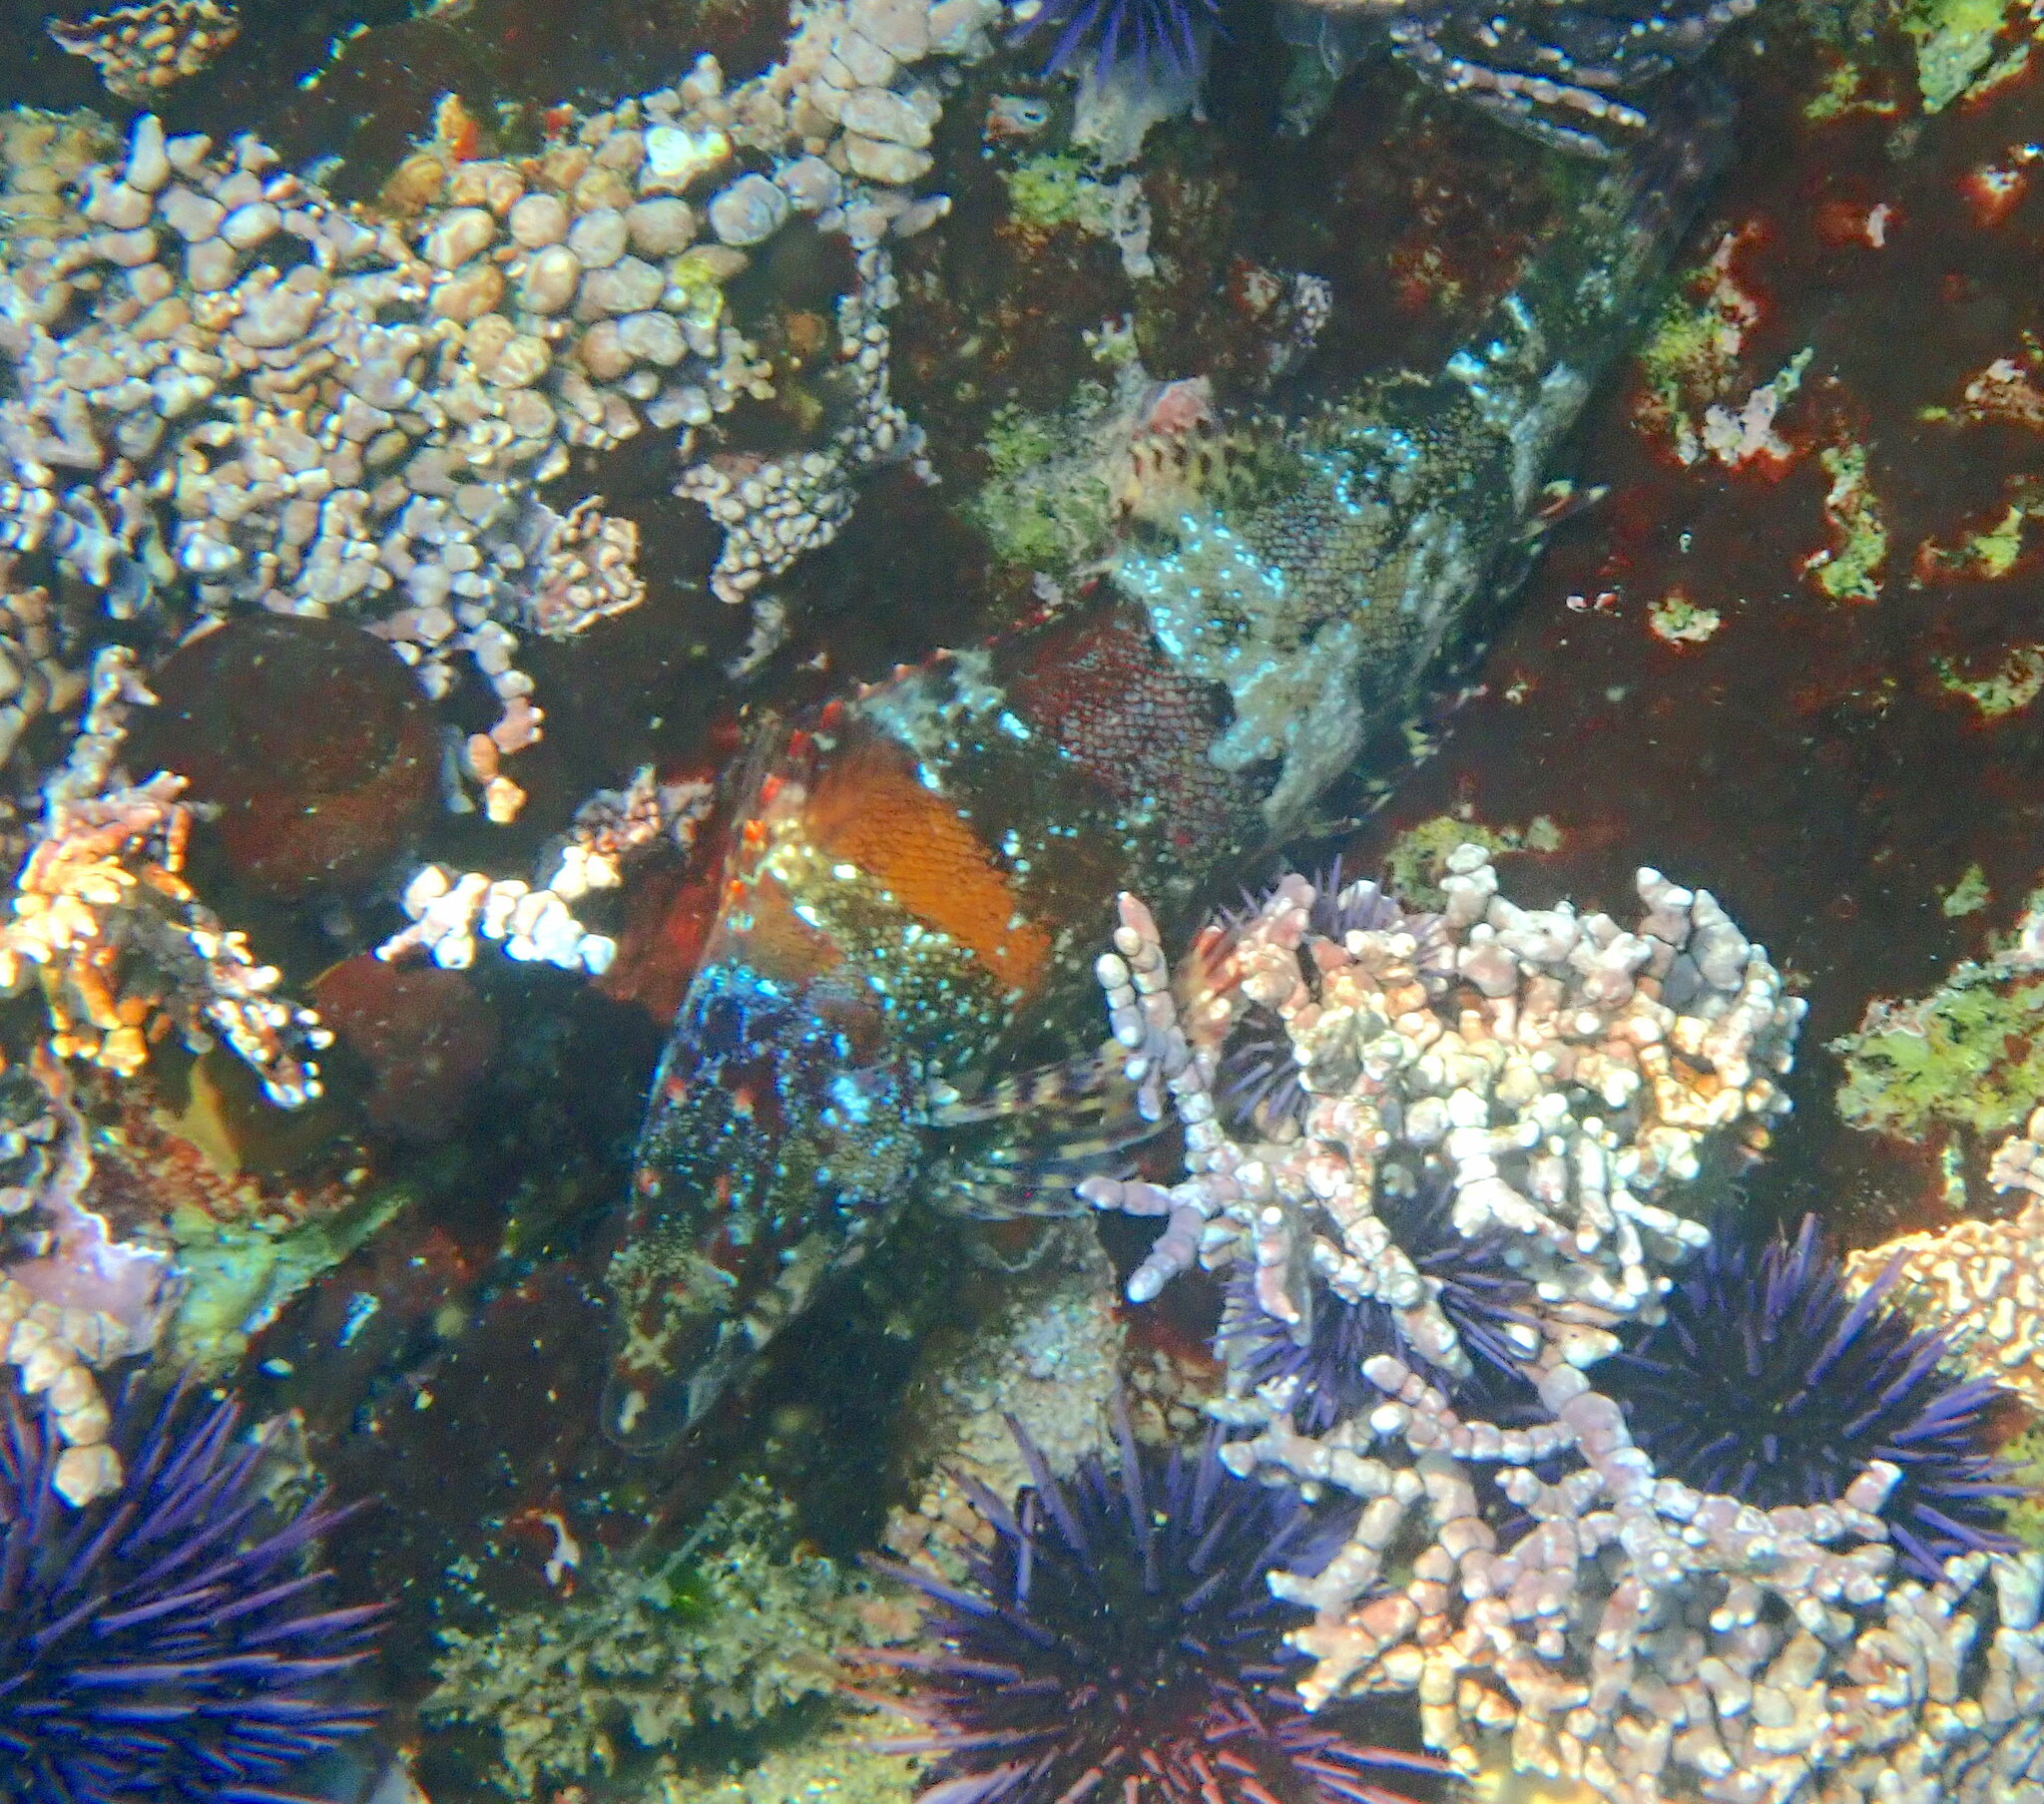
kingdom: Animalia
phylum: Chordata
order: Scorpaeniformes
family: Hexagrammidae
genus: Oxylebius
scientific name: Oxylebius pictus
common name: Painted greenling
